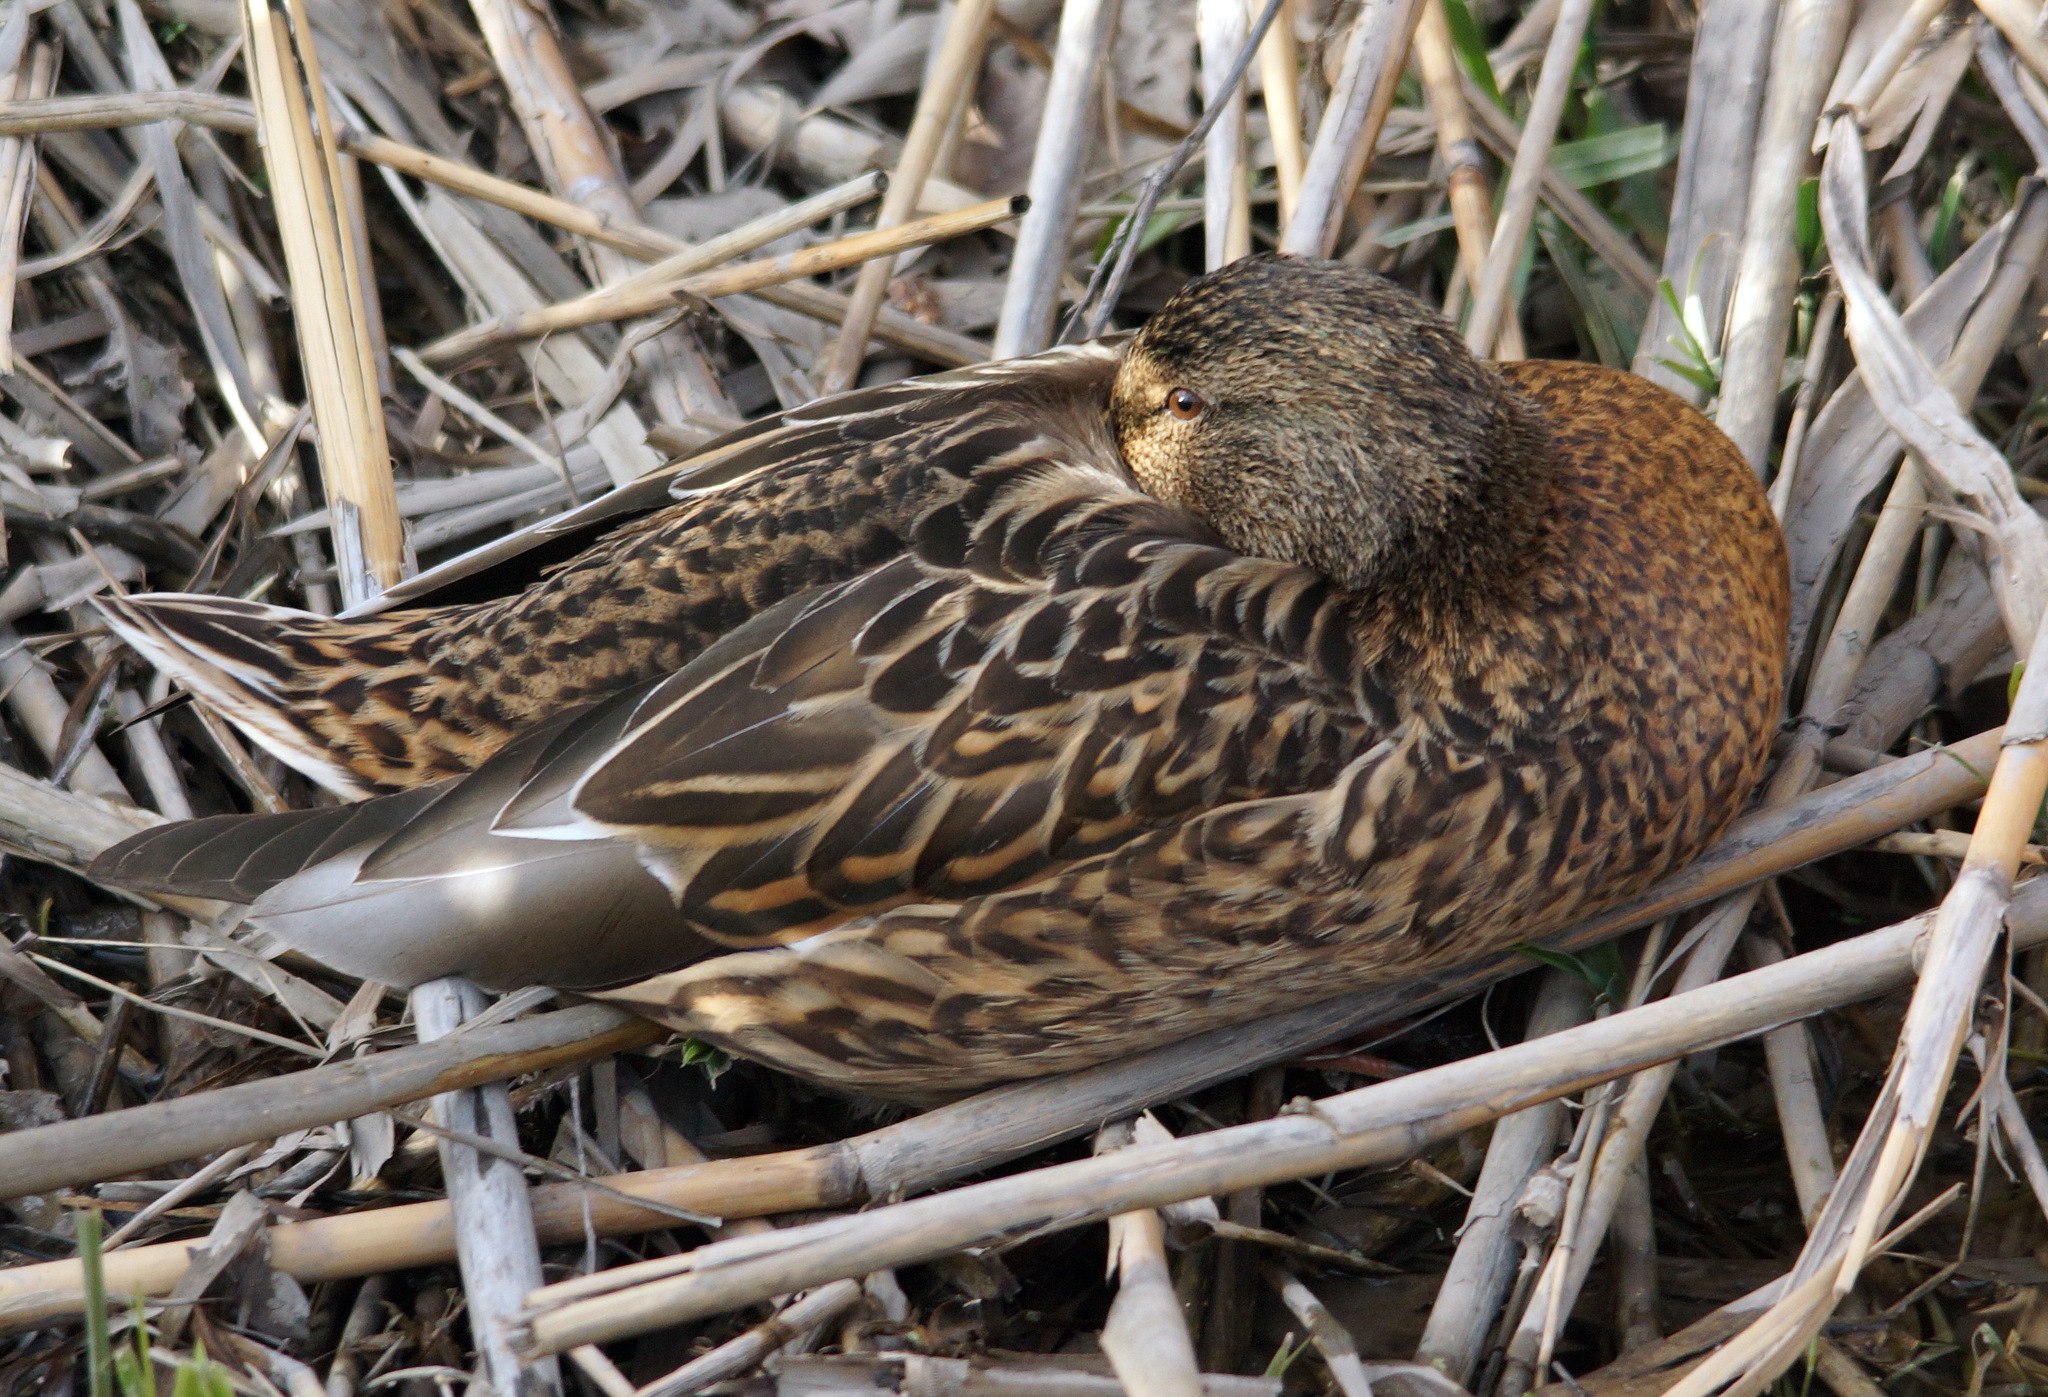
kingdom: Animalia
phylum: Chordata
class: Aves
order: Anseriformes
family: Anatidae
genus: Anas
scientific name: Anas platyrhynchos
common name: Mallard
